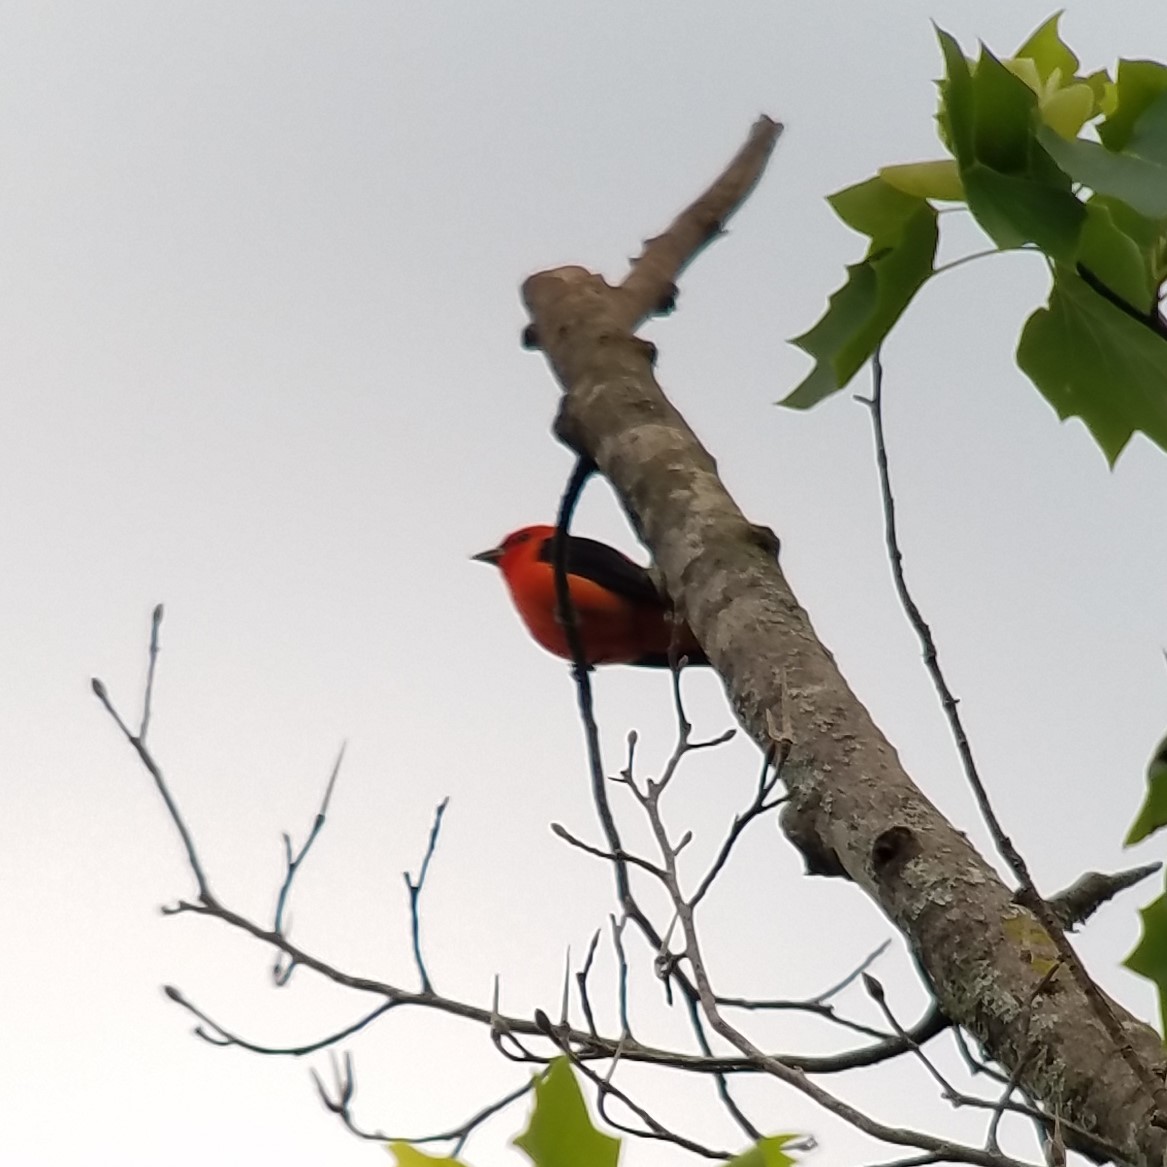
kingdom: Animalia
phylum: Chordata
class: Aves
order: Passeriformes
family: Cardinalidae
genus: Piranga
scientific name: Piranga olivacea
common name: Scarlet tanager
